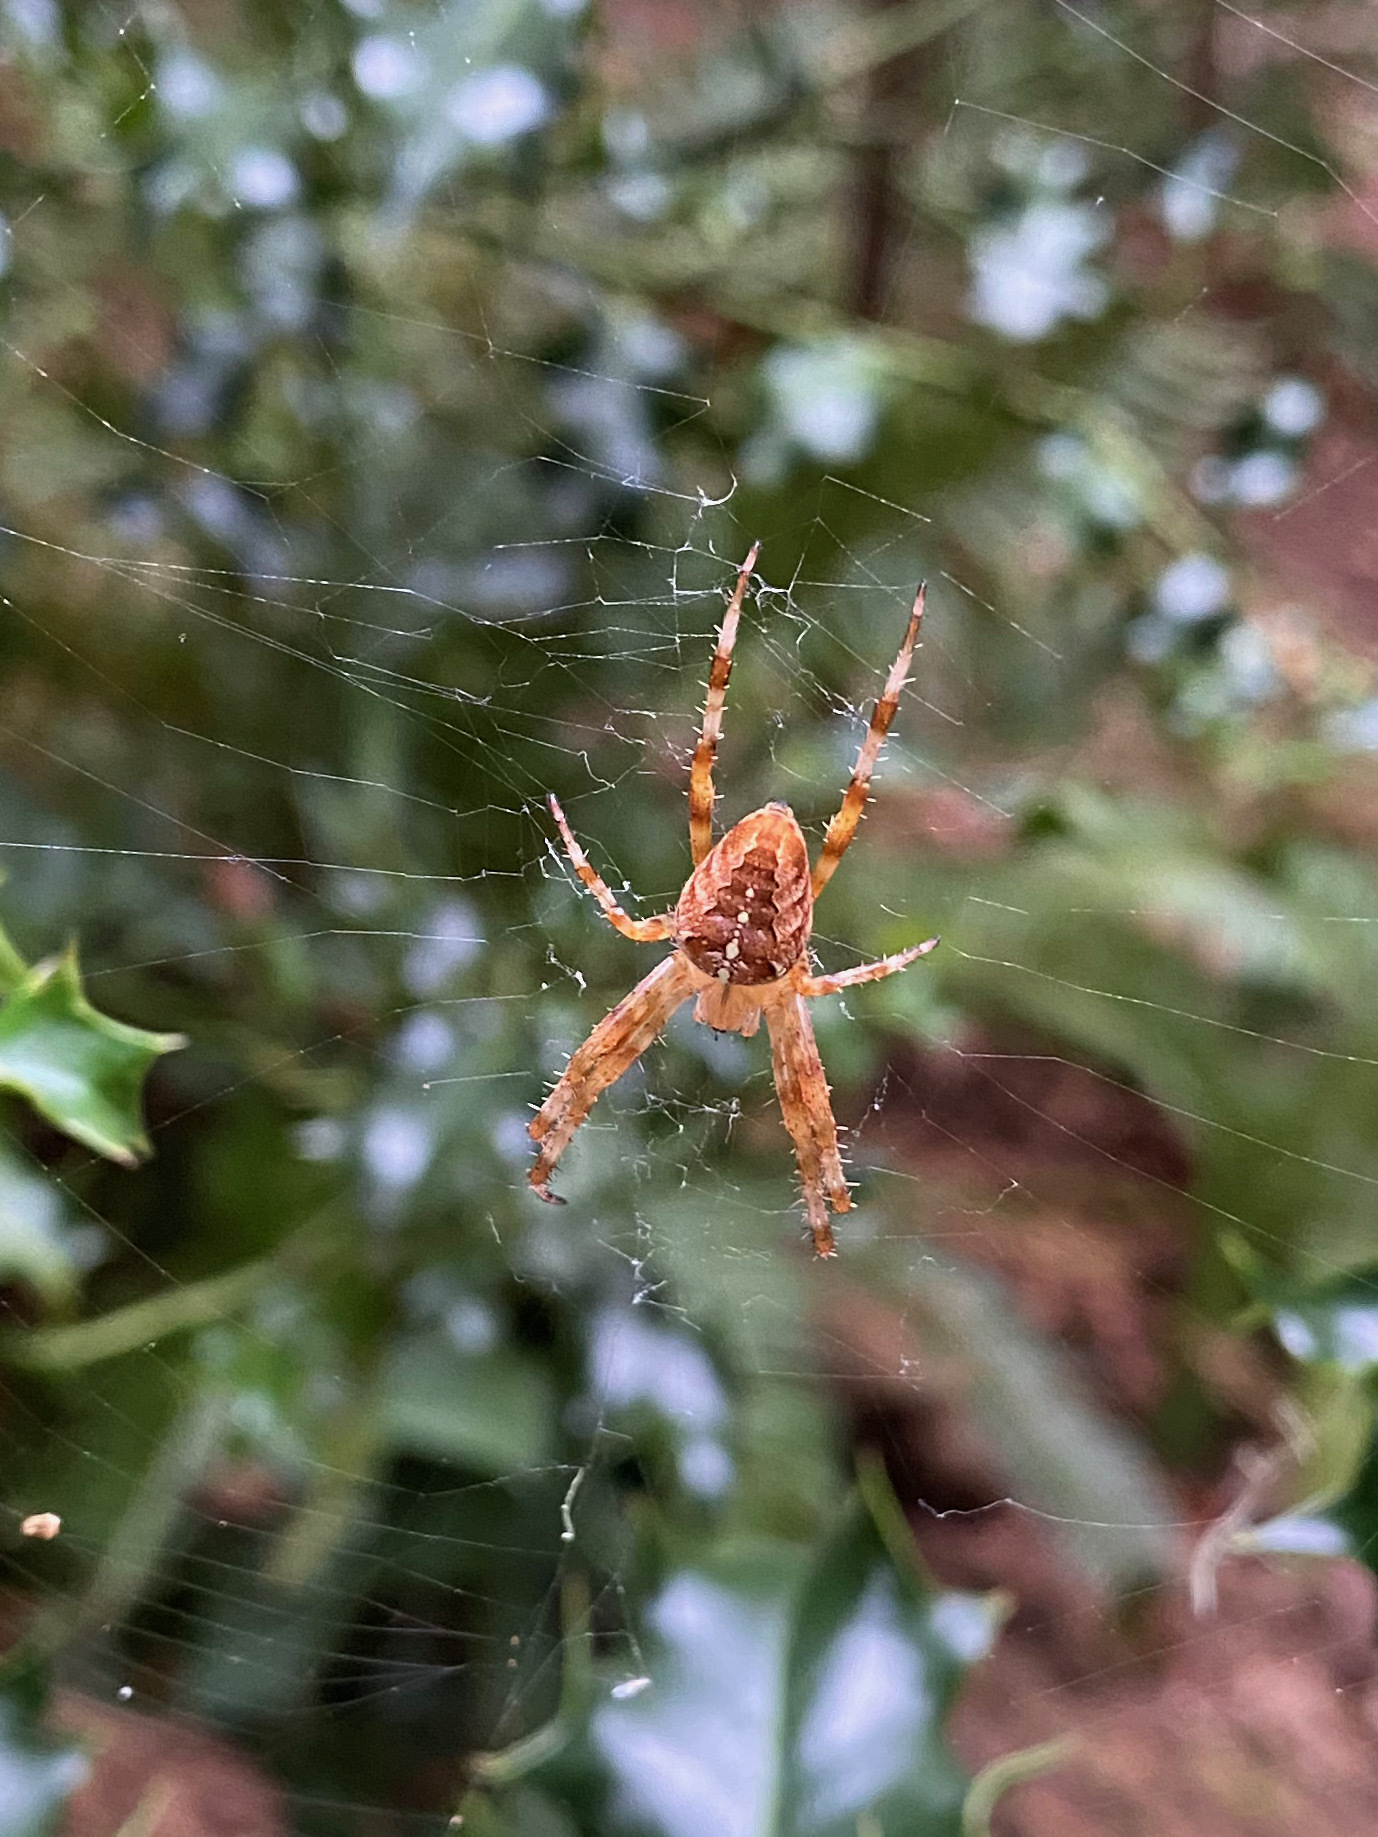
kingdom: Animalia
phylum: Arthropoda
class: Arachnida
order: Araneae
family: Araneidae
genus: Araneus
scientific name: Araneus diadematus
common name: Cross orbweaver
